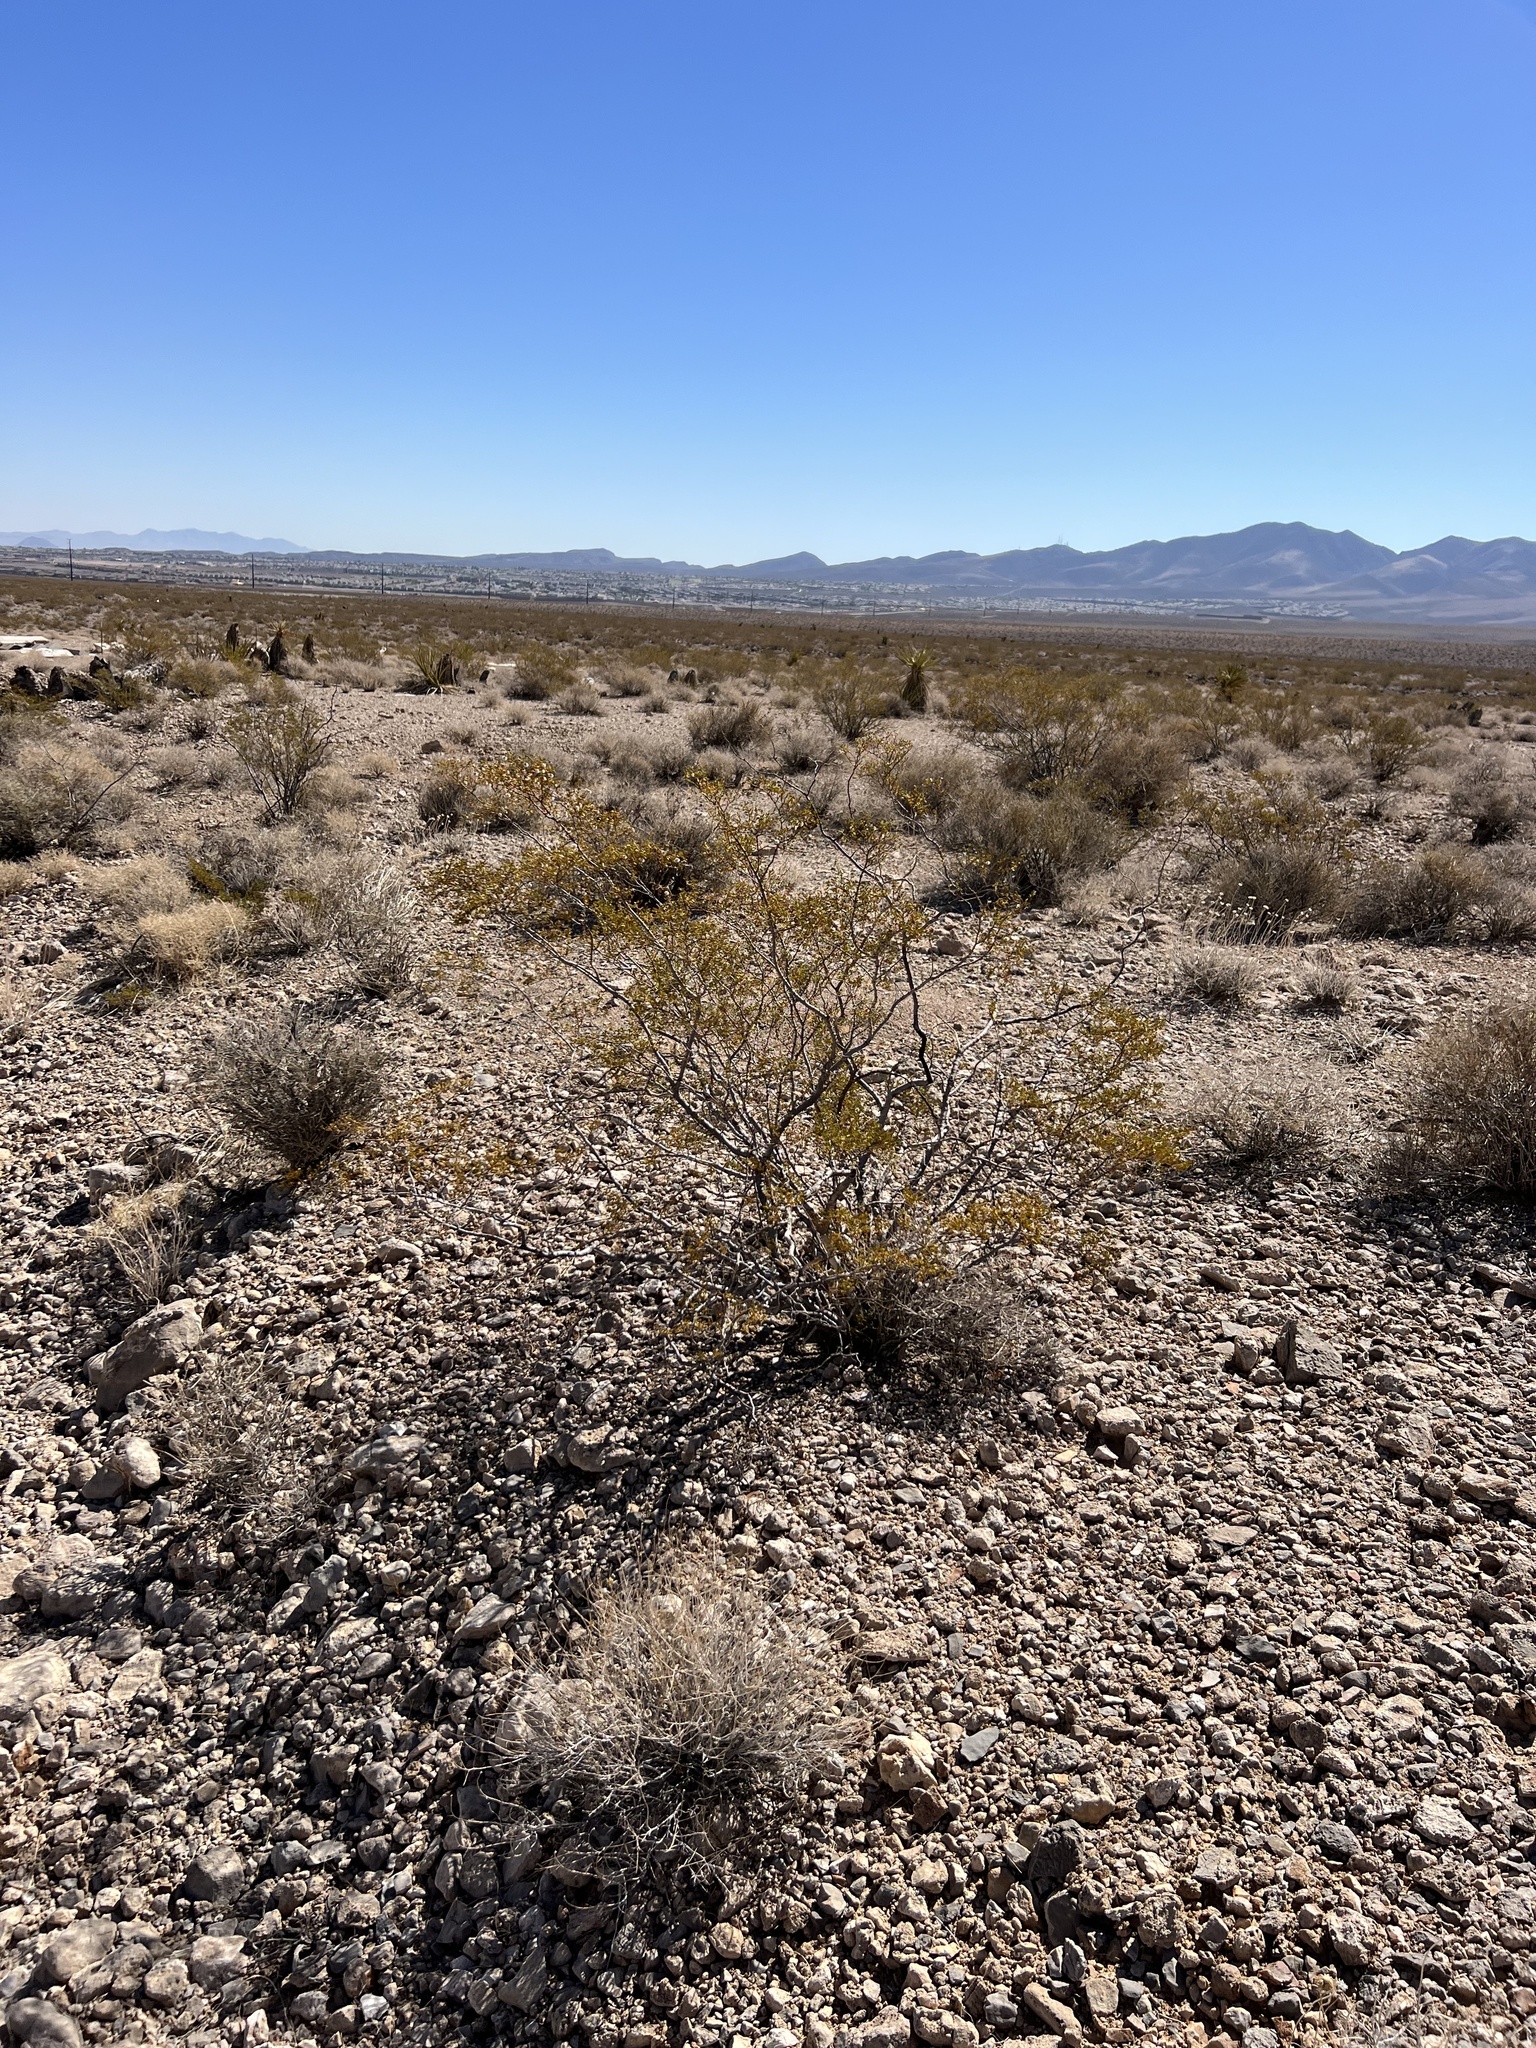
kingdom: Plantae
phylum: Tracheophyta
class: Magnoliopsida
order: Zygophyllales
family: Zygophyllaceae
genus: Larrea
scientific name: Larrea tridentata
